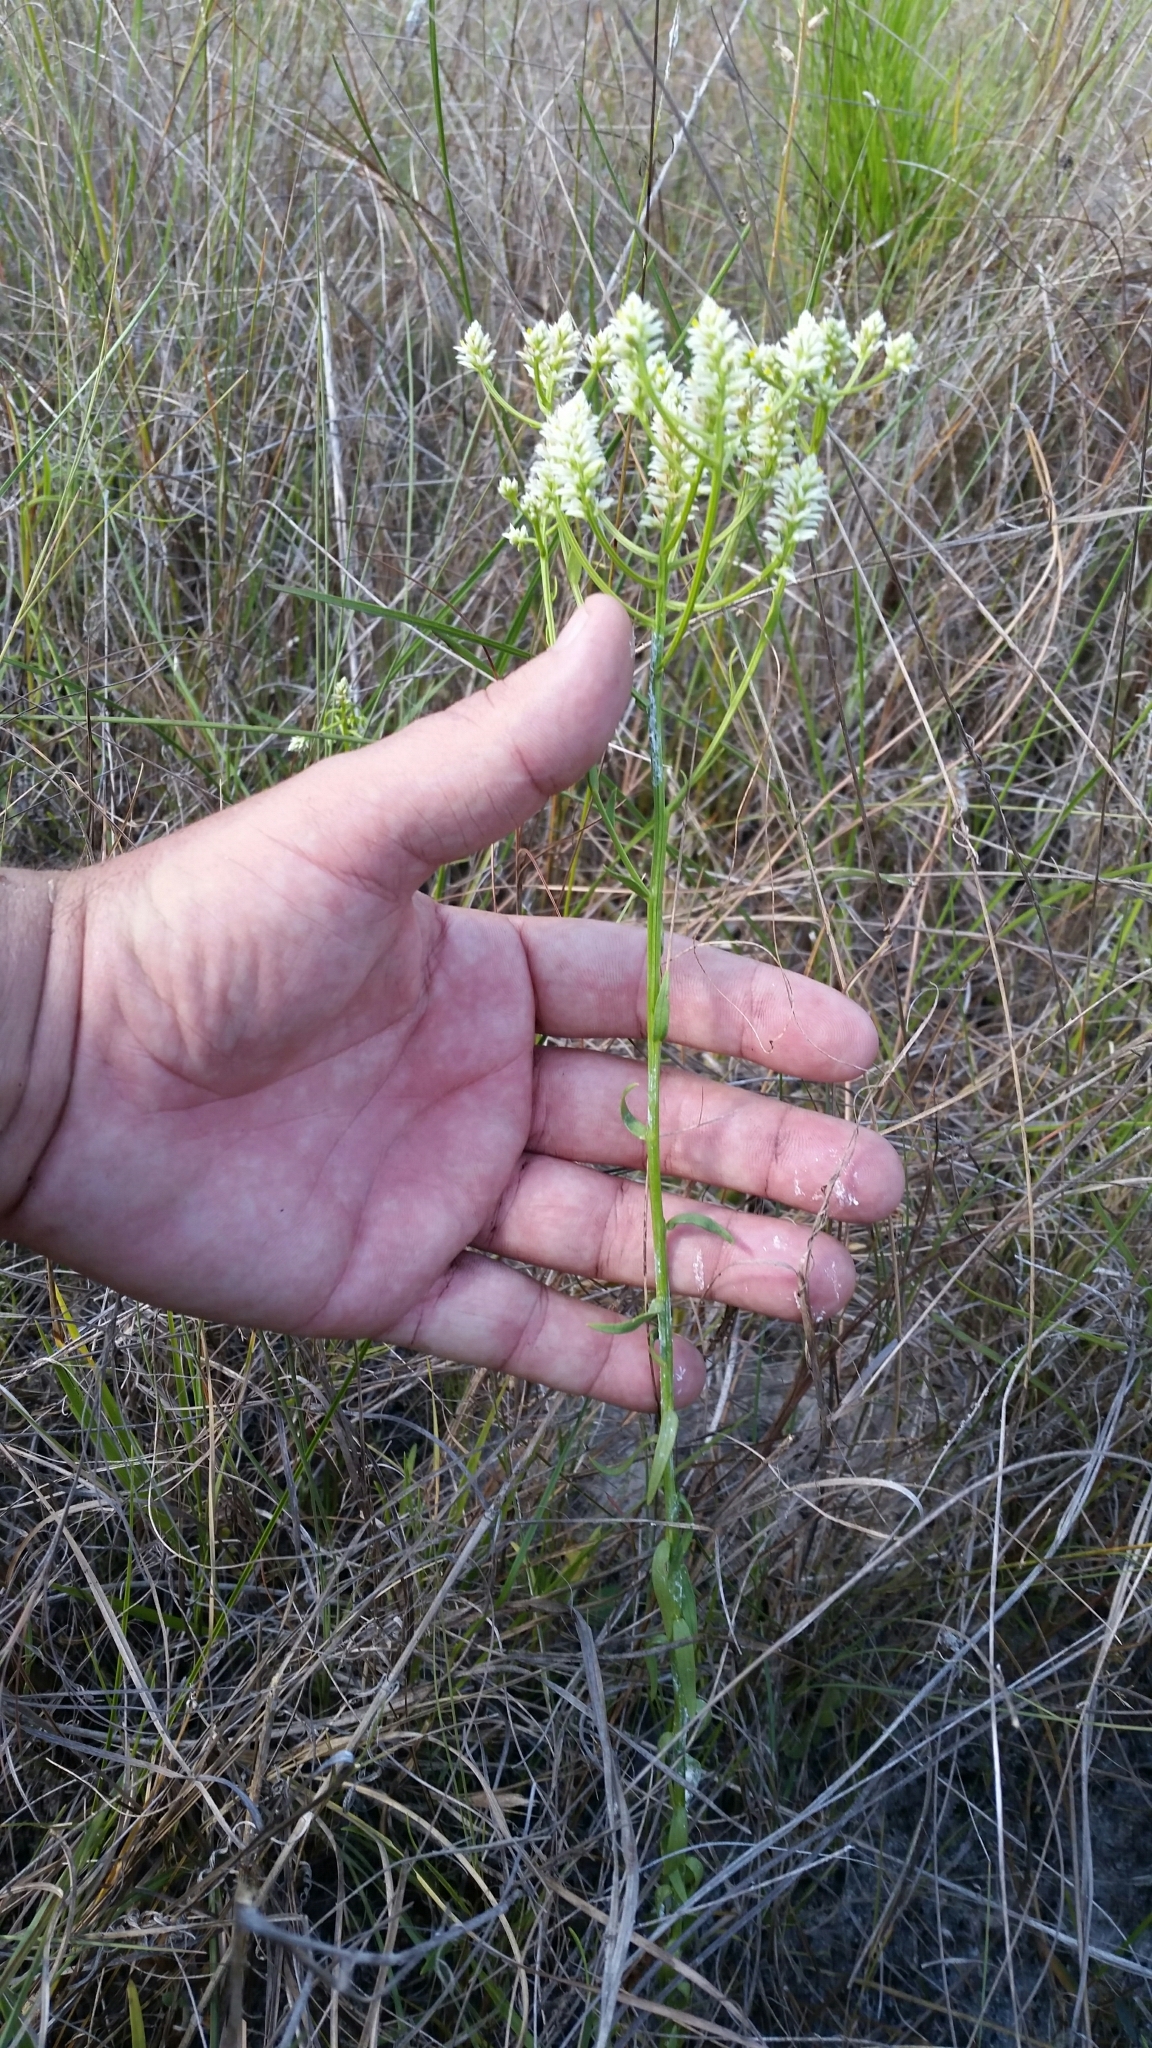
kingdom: Plantae
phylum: Tracheophyta
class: Magnoliopsida
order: Fabales
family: Polygalaceae
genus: Polygala
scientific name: Polygala baldwinii
